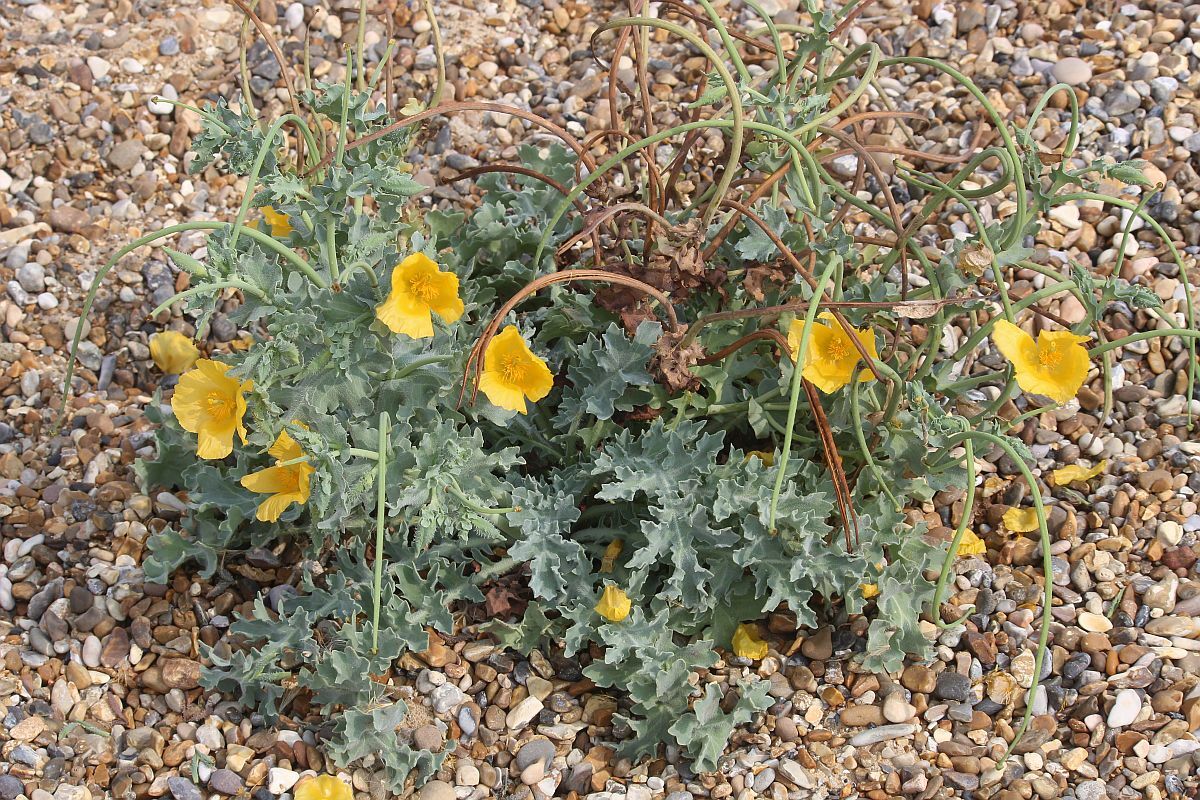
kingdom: Plantae
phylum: Tracheophyta
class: Magnoliopsida
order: Ranunculales
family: Papaveraceae
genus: Glaucium
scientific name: Glaucium flavum
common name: Yellow horned-poppy
